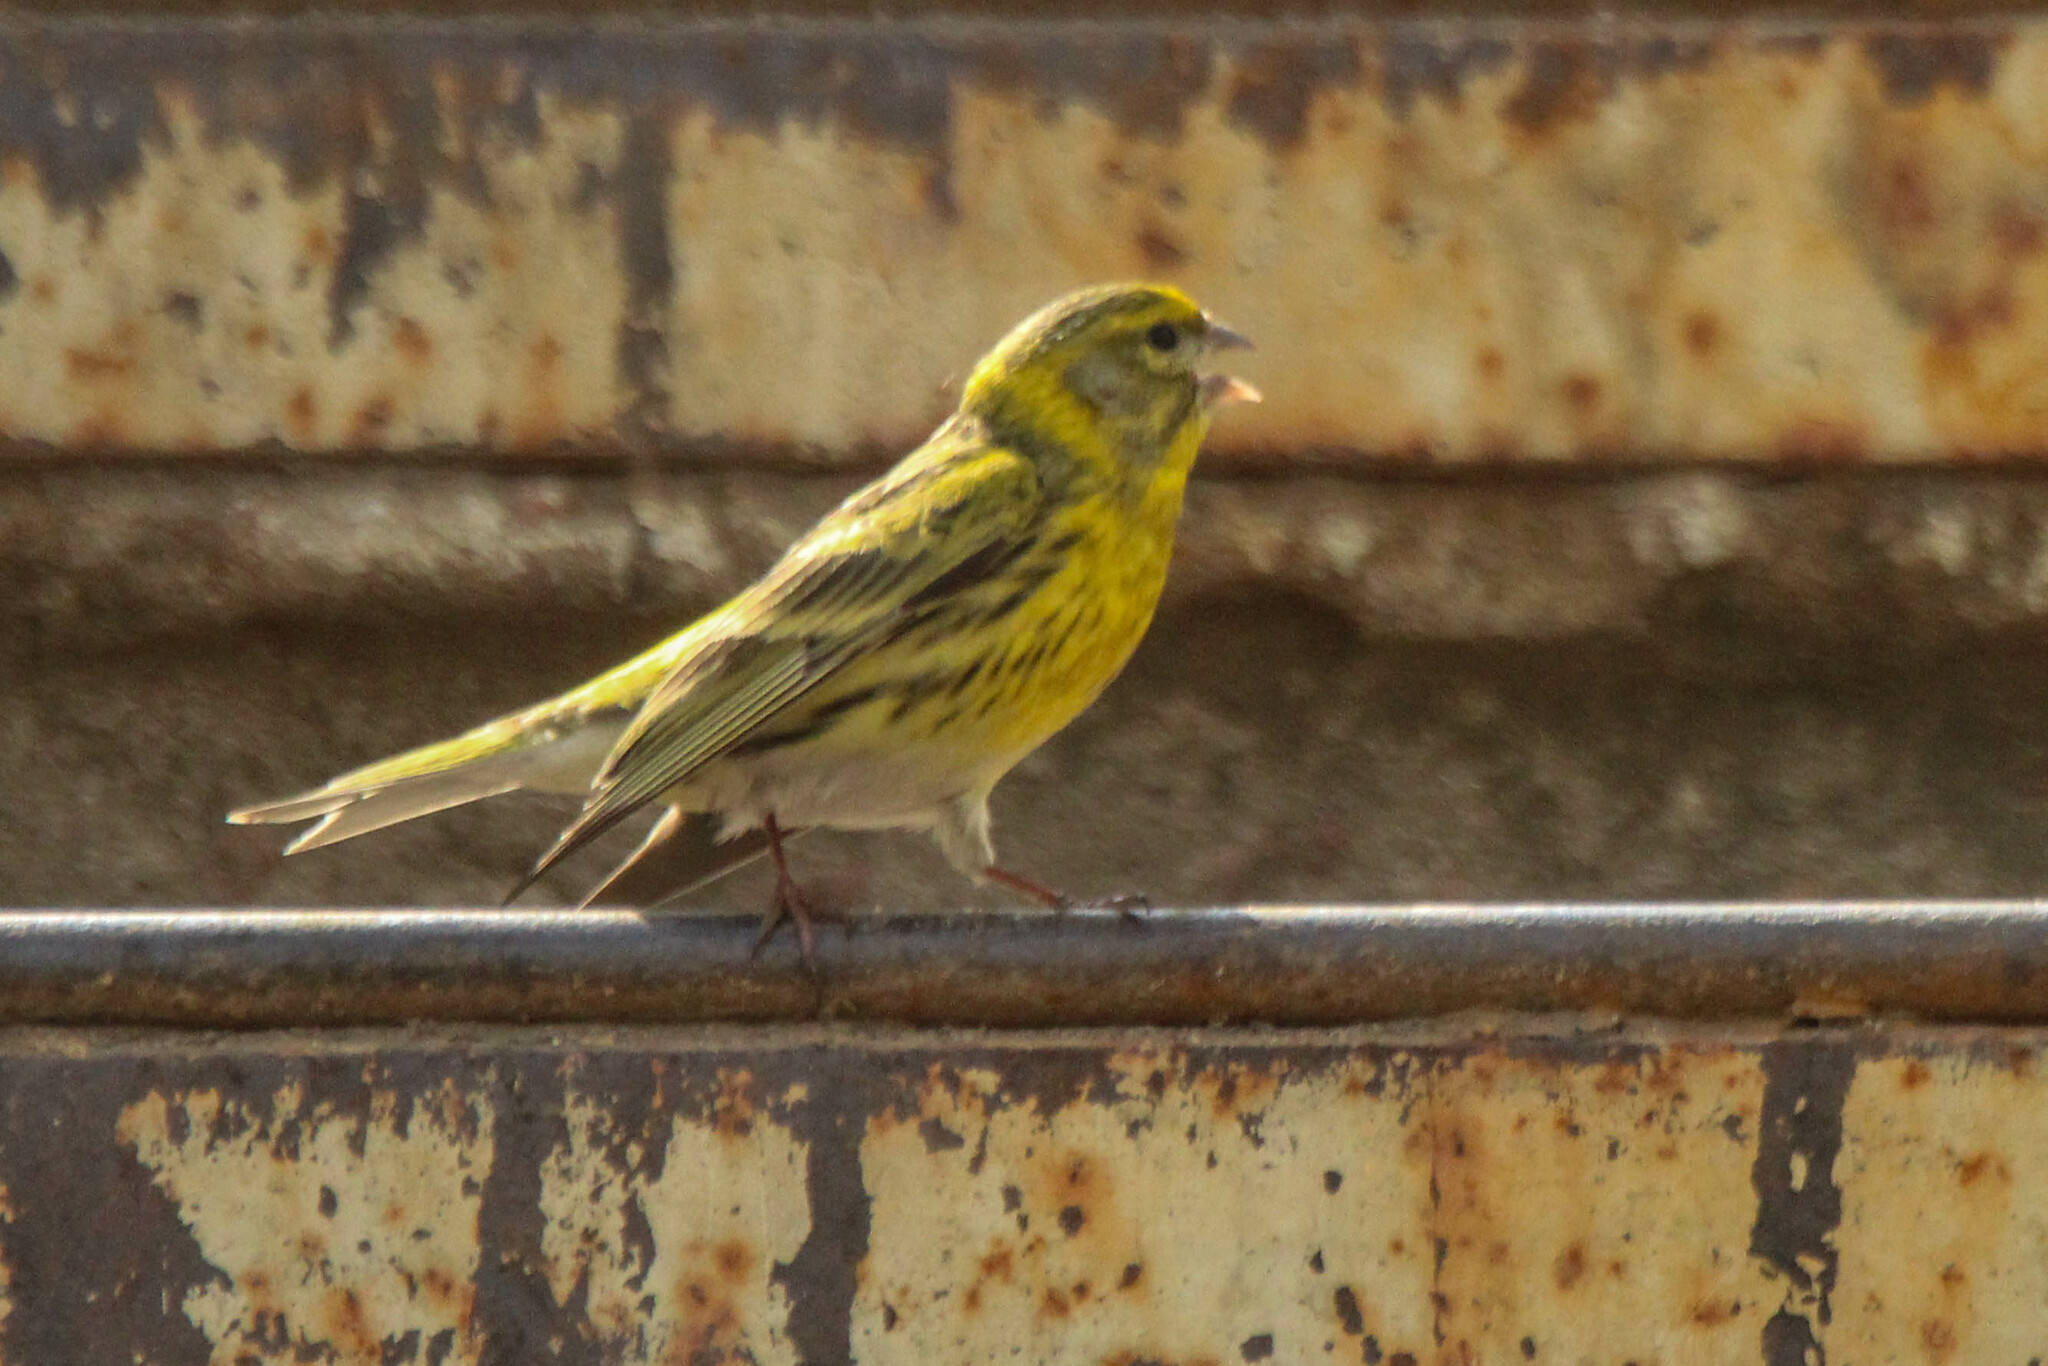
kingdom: Animalia
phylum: Chordata
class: Aves
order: Passeriformes
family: Fringillidae
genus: Serinus
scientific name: Serinus serinus
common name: European serin
